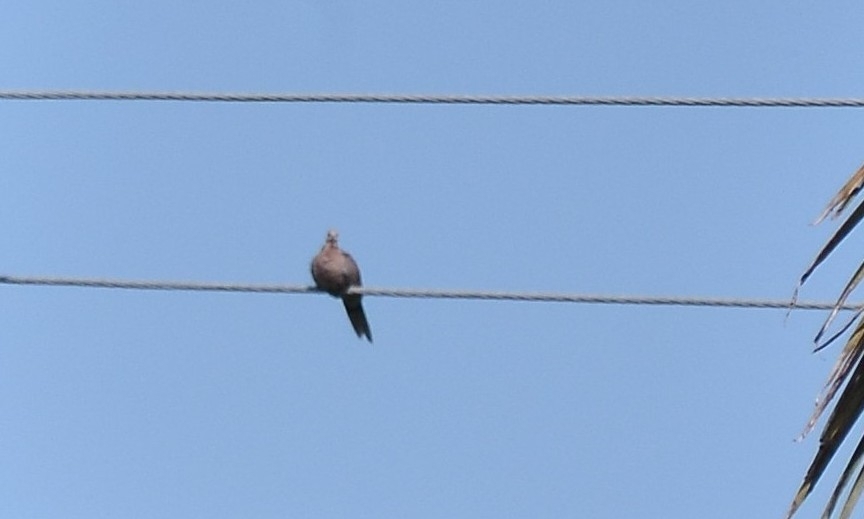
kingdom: Animalia
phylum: Chordata
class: Aves
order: Columbiformes
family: Columbidae
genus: Spilopelia
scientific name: Spilopelia chinensis
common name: Spotted dove
